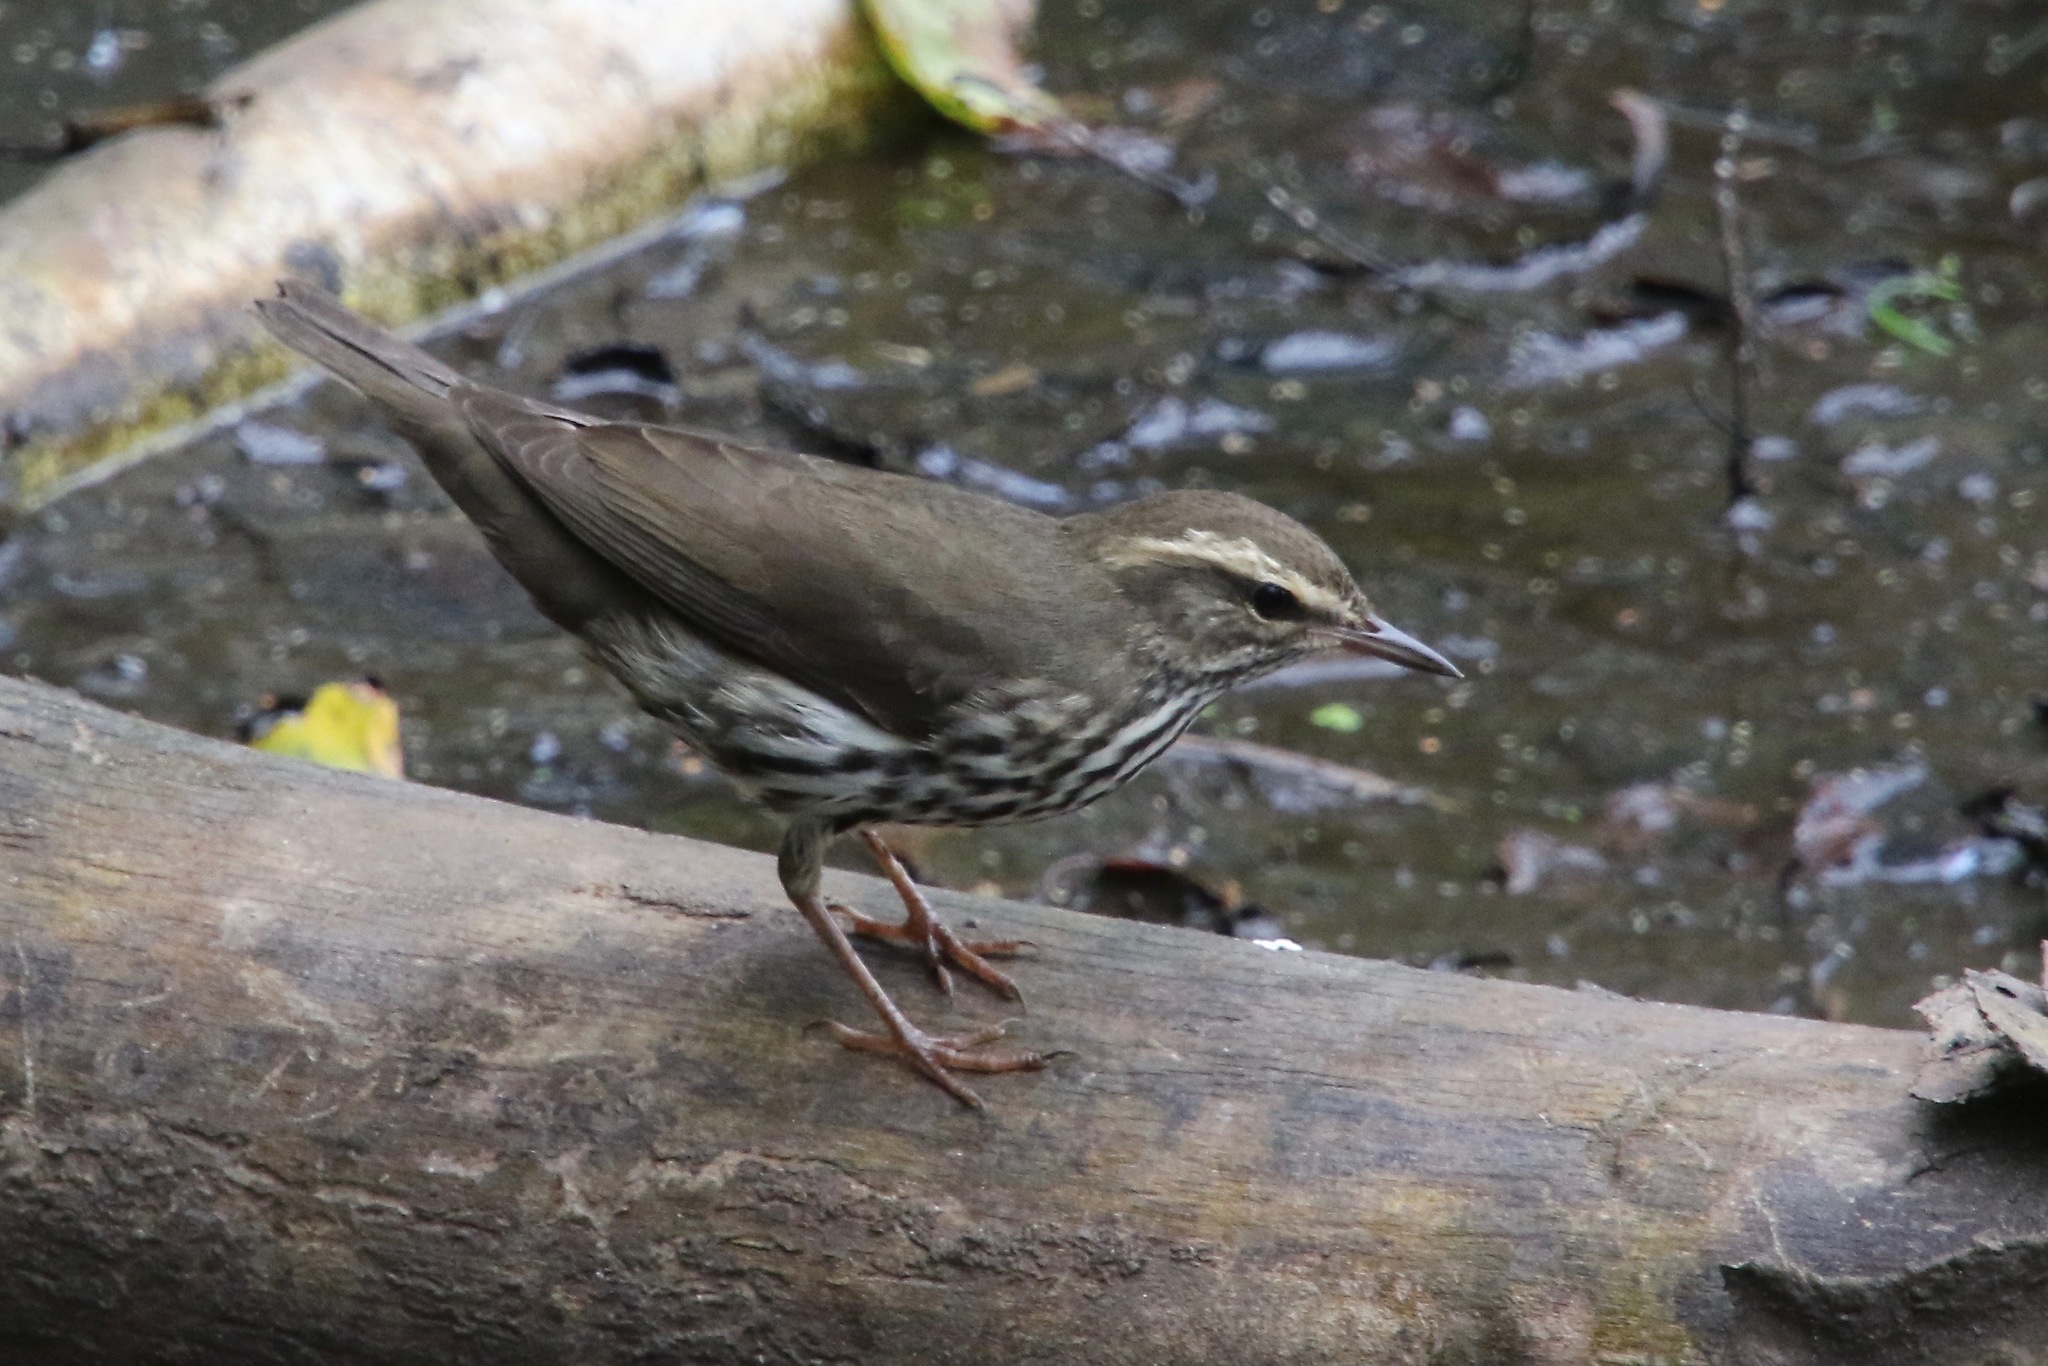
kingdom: Animalia
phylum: Chordata
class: Aves
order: Passeriformes
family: Parulidae
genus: Parkesia
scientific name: Parkesia noveboracensis
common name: Northern waterthrush
